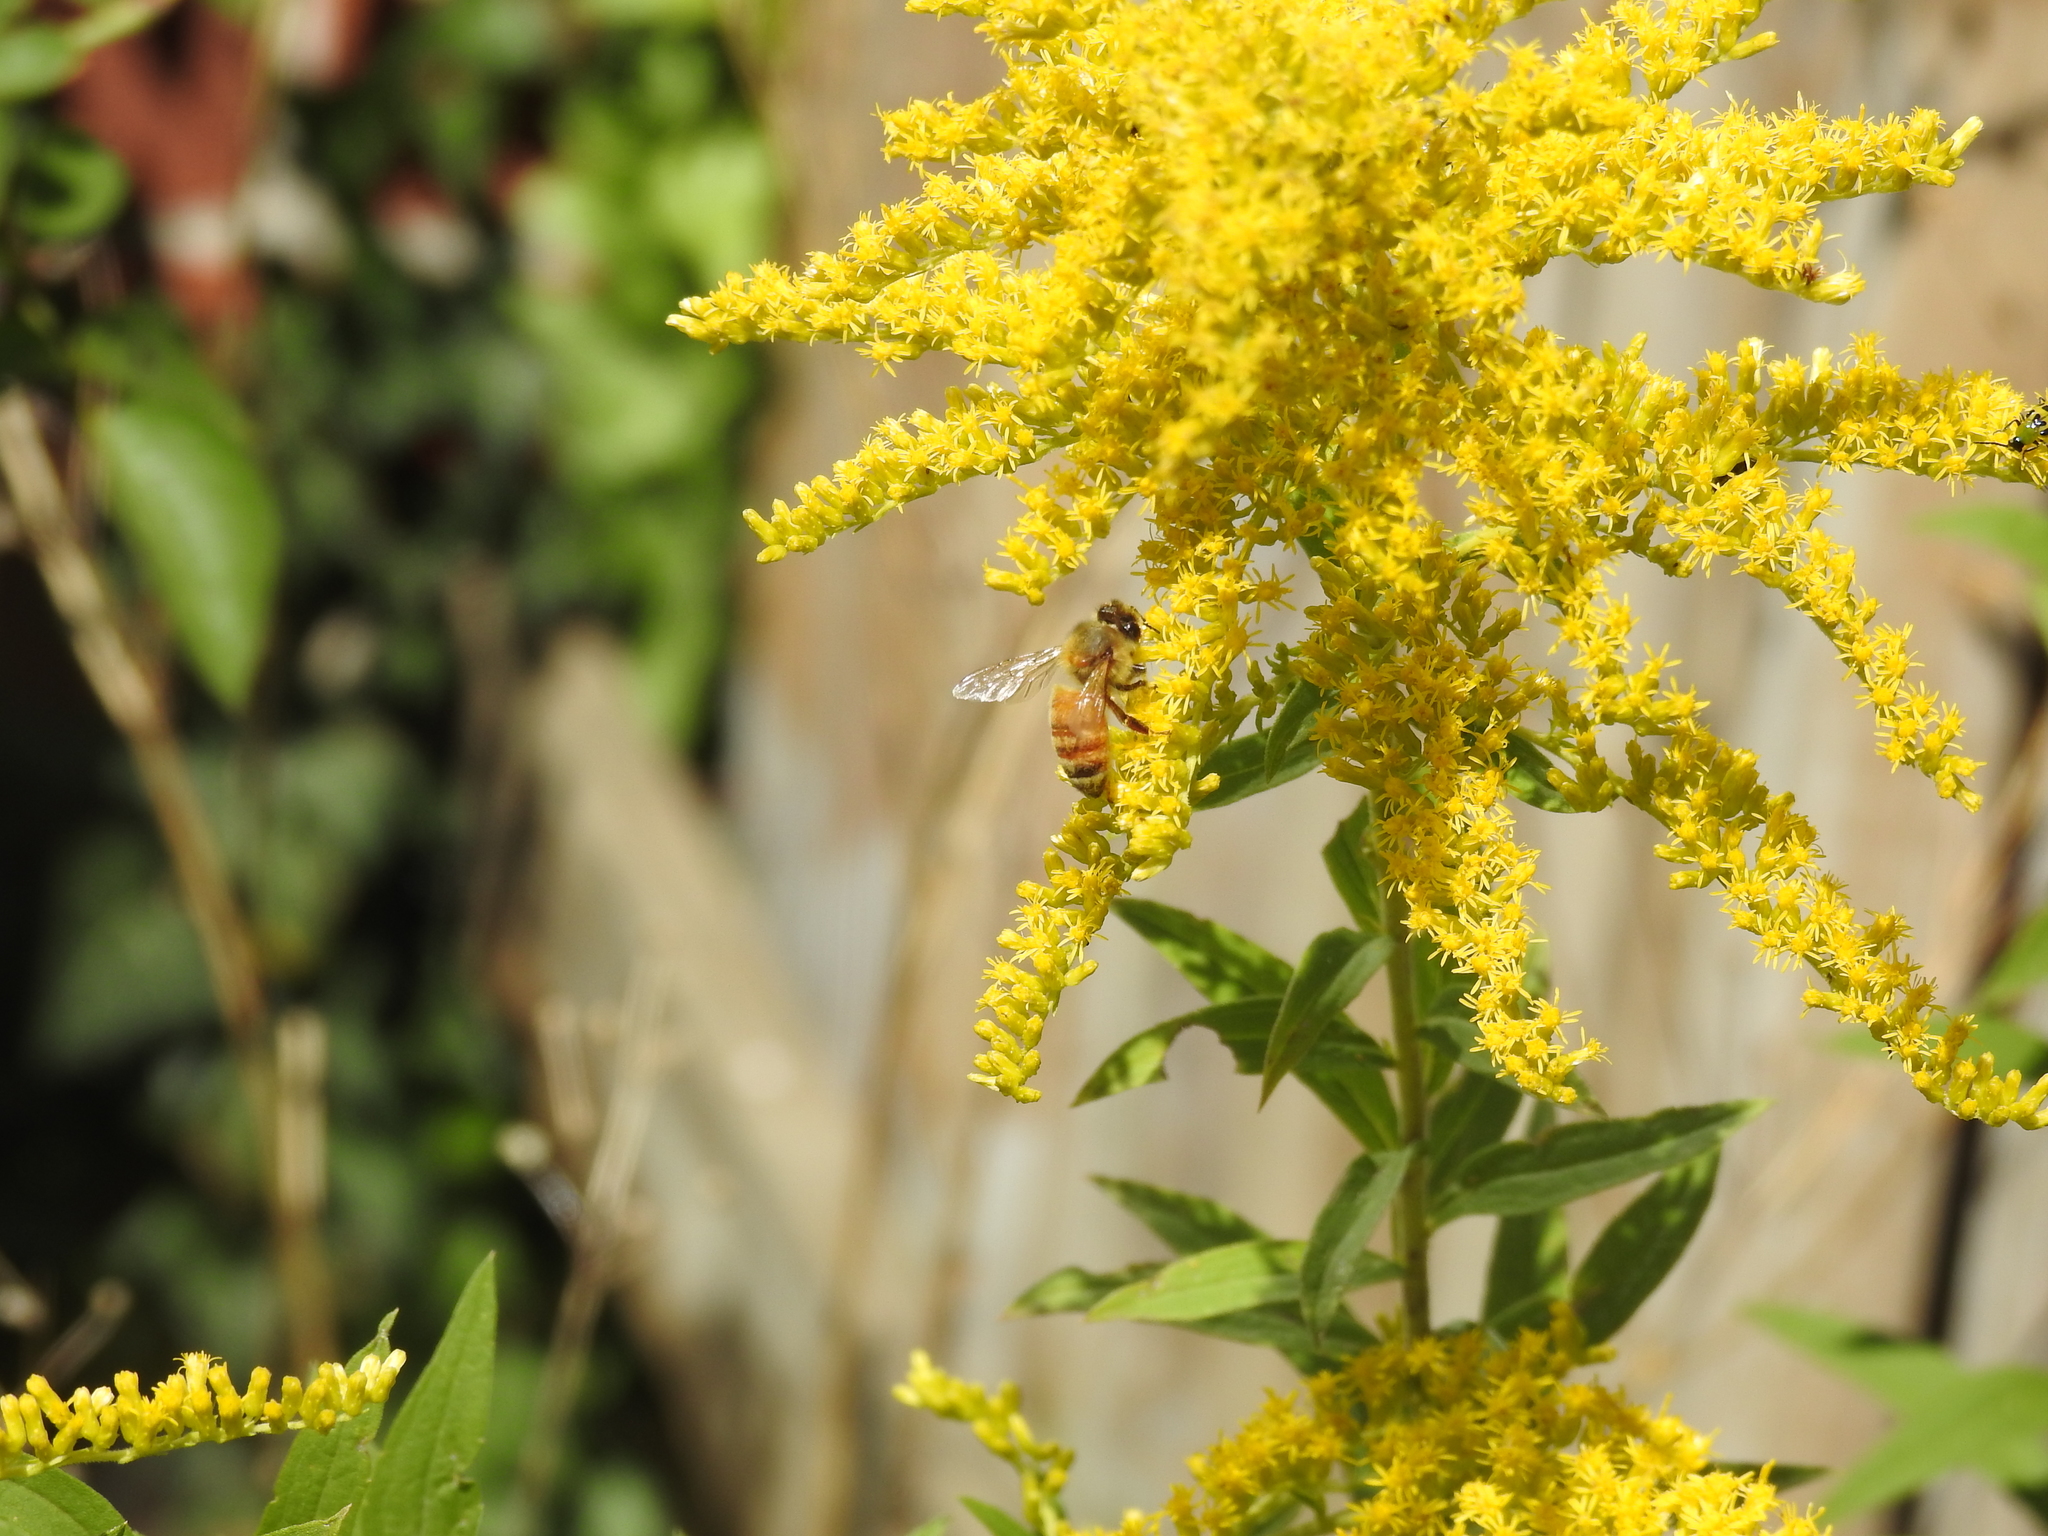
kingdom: Animalia
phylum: Arthropoda
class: Insecta
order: Hymenoptera
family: Apidae
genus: Apis
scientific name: Apis mellifera
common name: Honey bee
